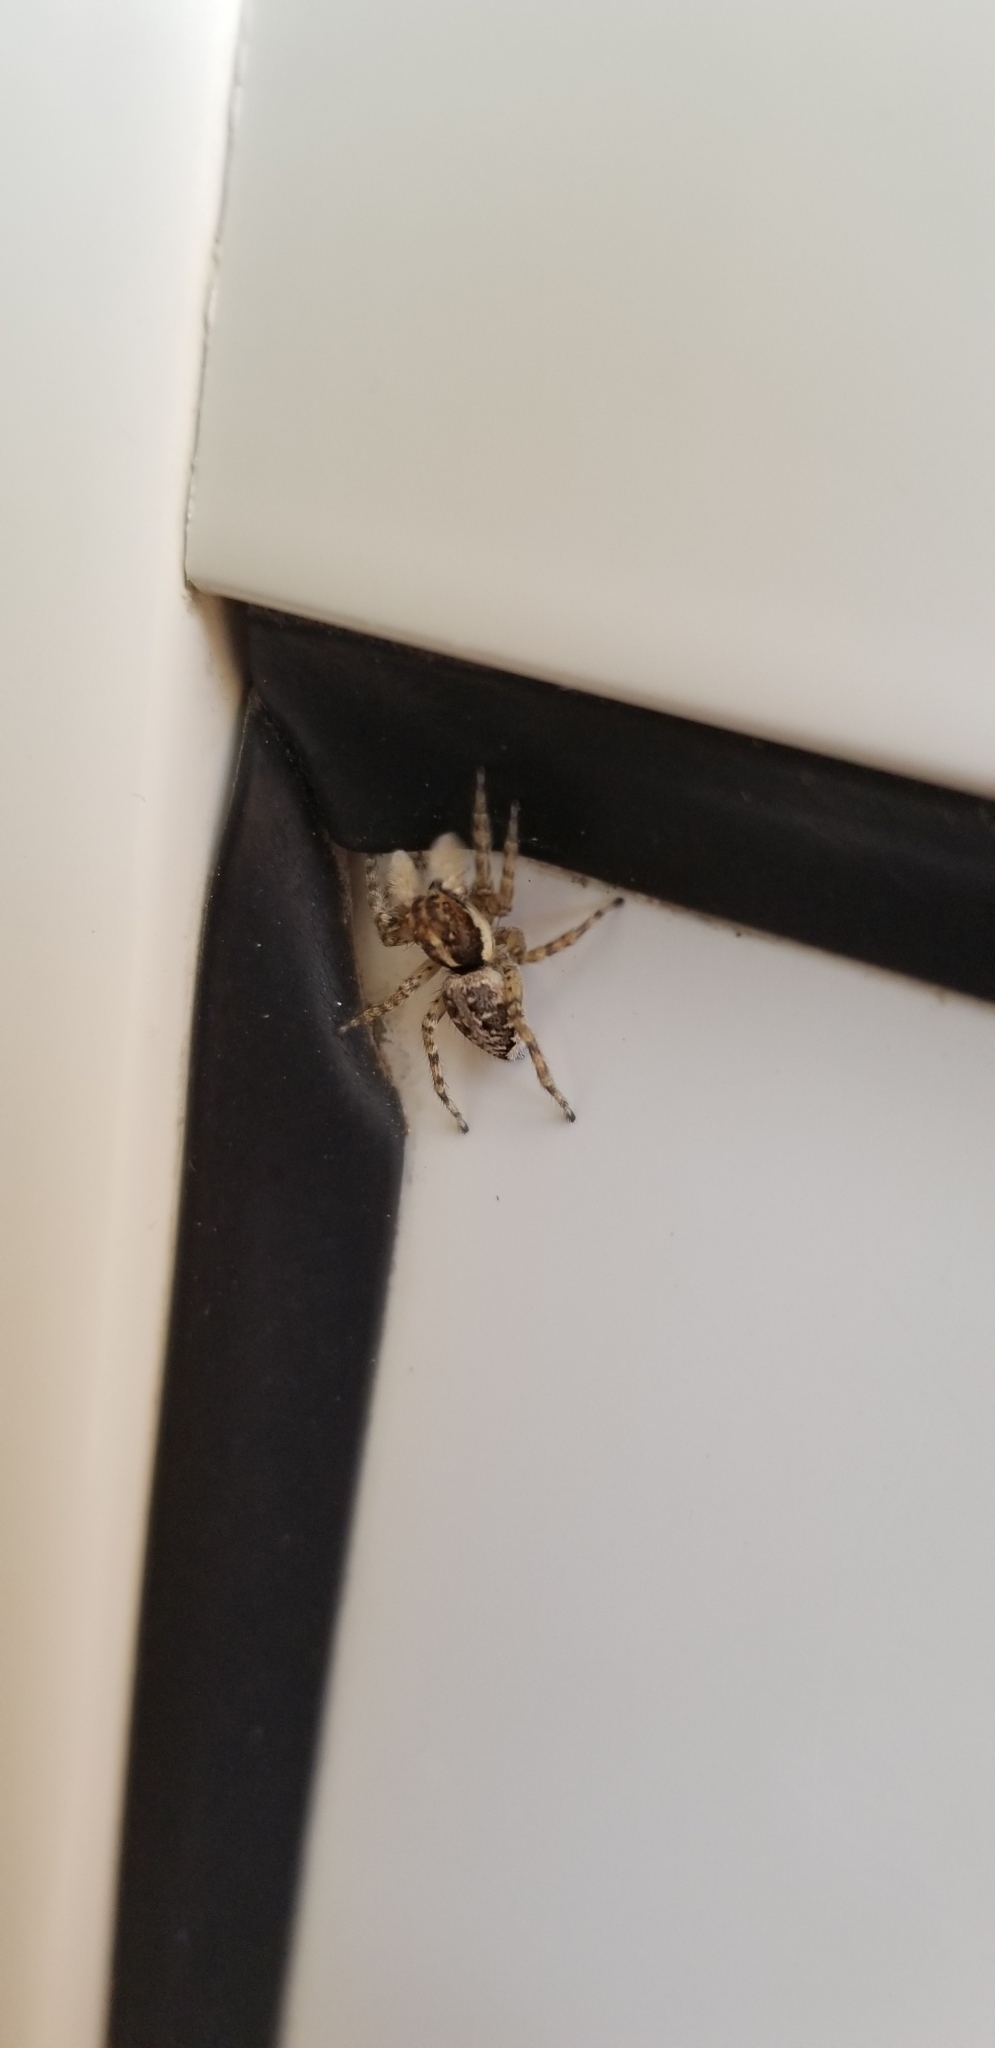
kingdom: Animalia
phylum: Arthropoda
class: Arachnida
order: Araneae
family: Salticidae
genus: Menemerus
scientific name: Menemerus semilimbatus
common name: Jumping spider
